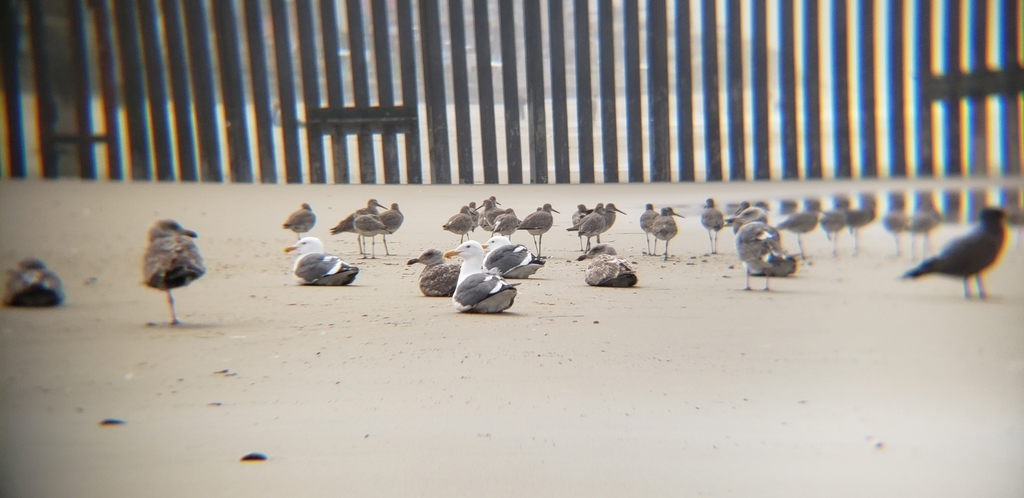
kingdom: Animalia
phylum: Chordata
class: Aves
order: Charadriiformes
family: Laridae
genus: Larus
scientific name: Larus heermanni
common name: Heermann's gull
